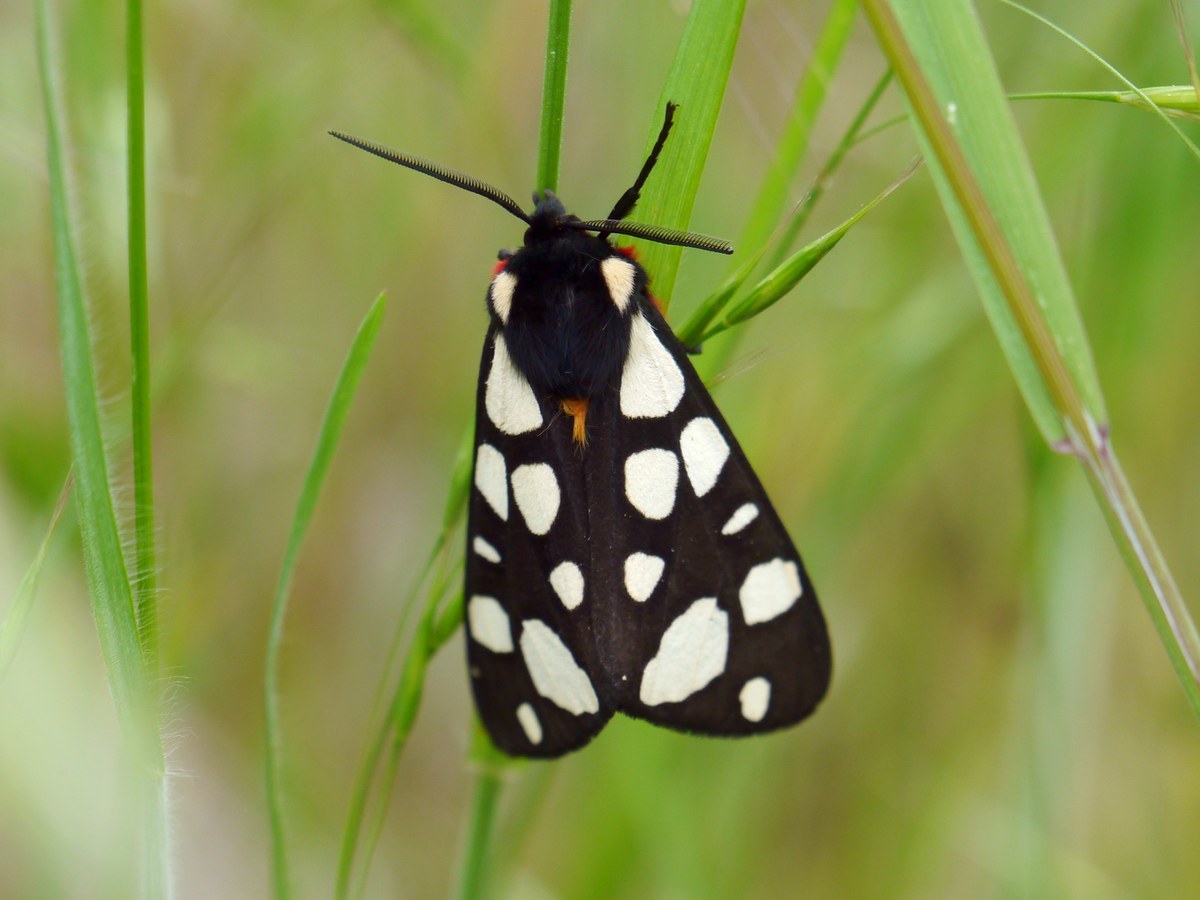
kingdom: Animalia
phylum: Arthropoda
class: Insecta
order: Lepidoptera
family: Erebidae
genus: Epicallia
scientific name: Epicallia villica
